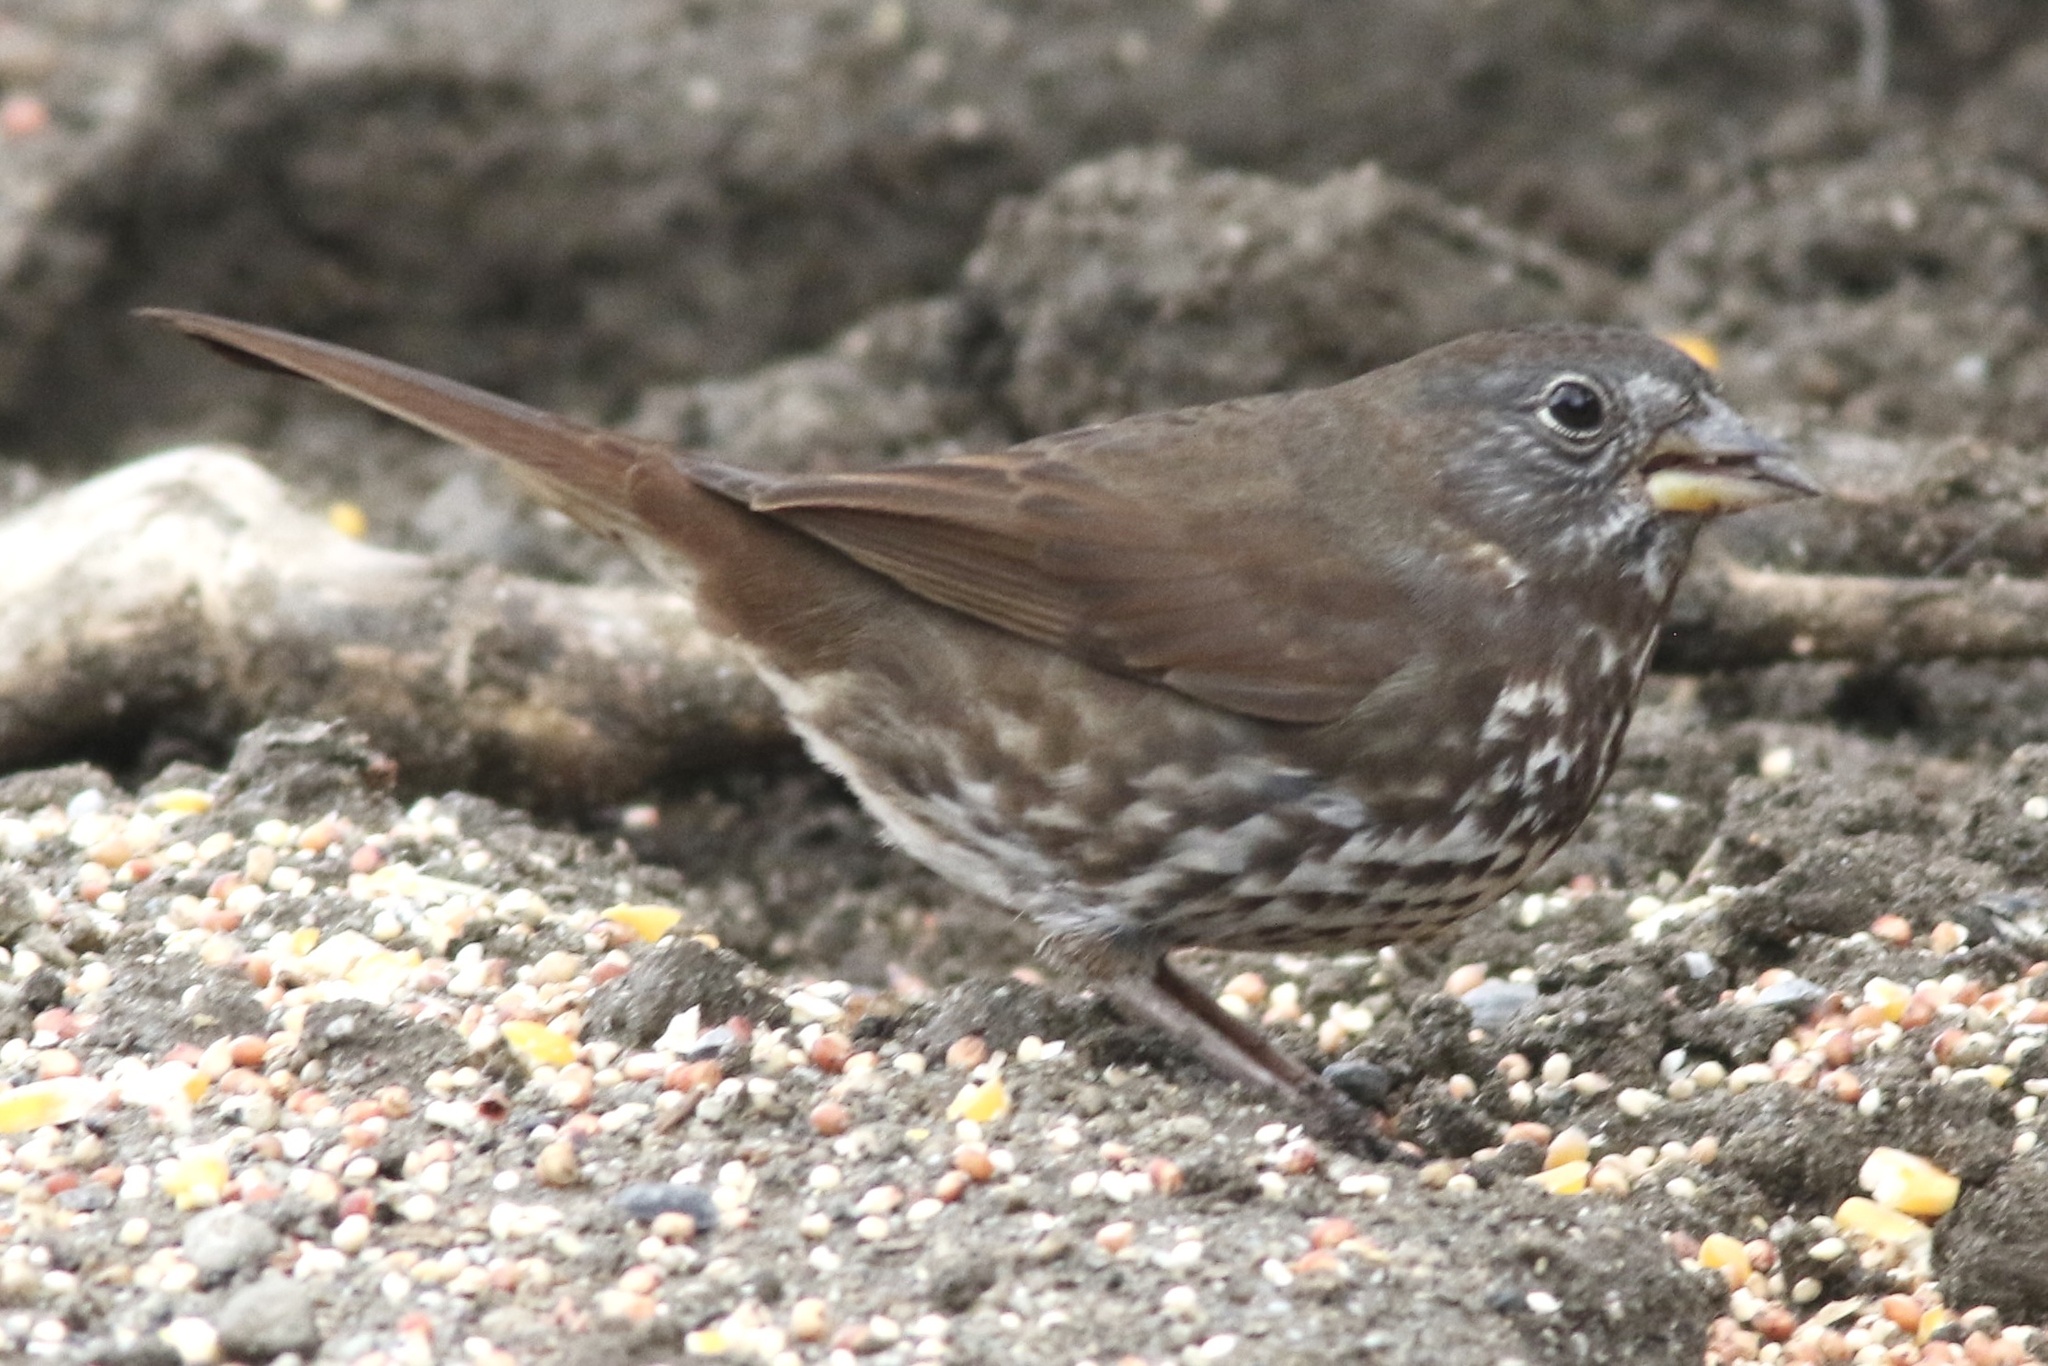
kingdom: Animalia
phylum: Chordata
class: Aves
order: Passeriformes
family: Passerellidae
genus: Passerella
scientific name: Passerella iliaca
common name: Fox sparrow
